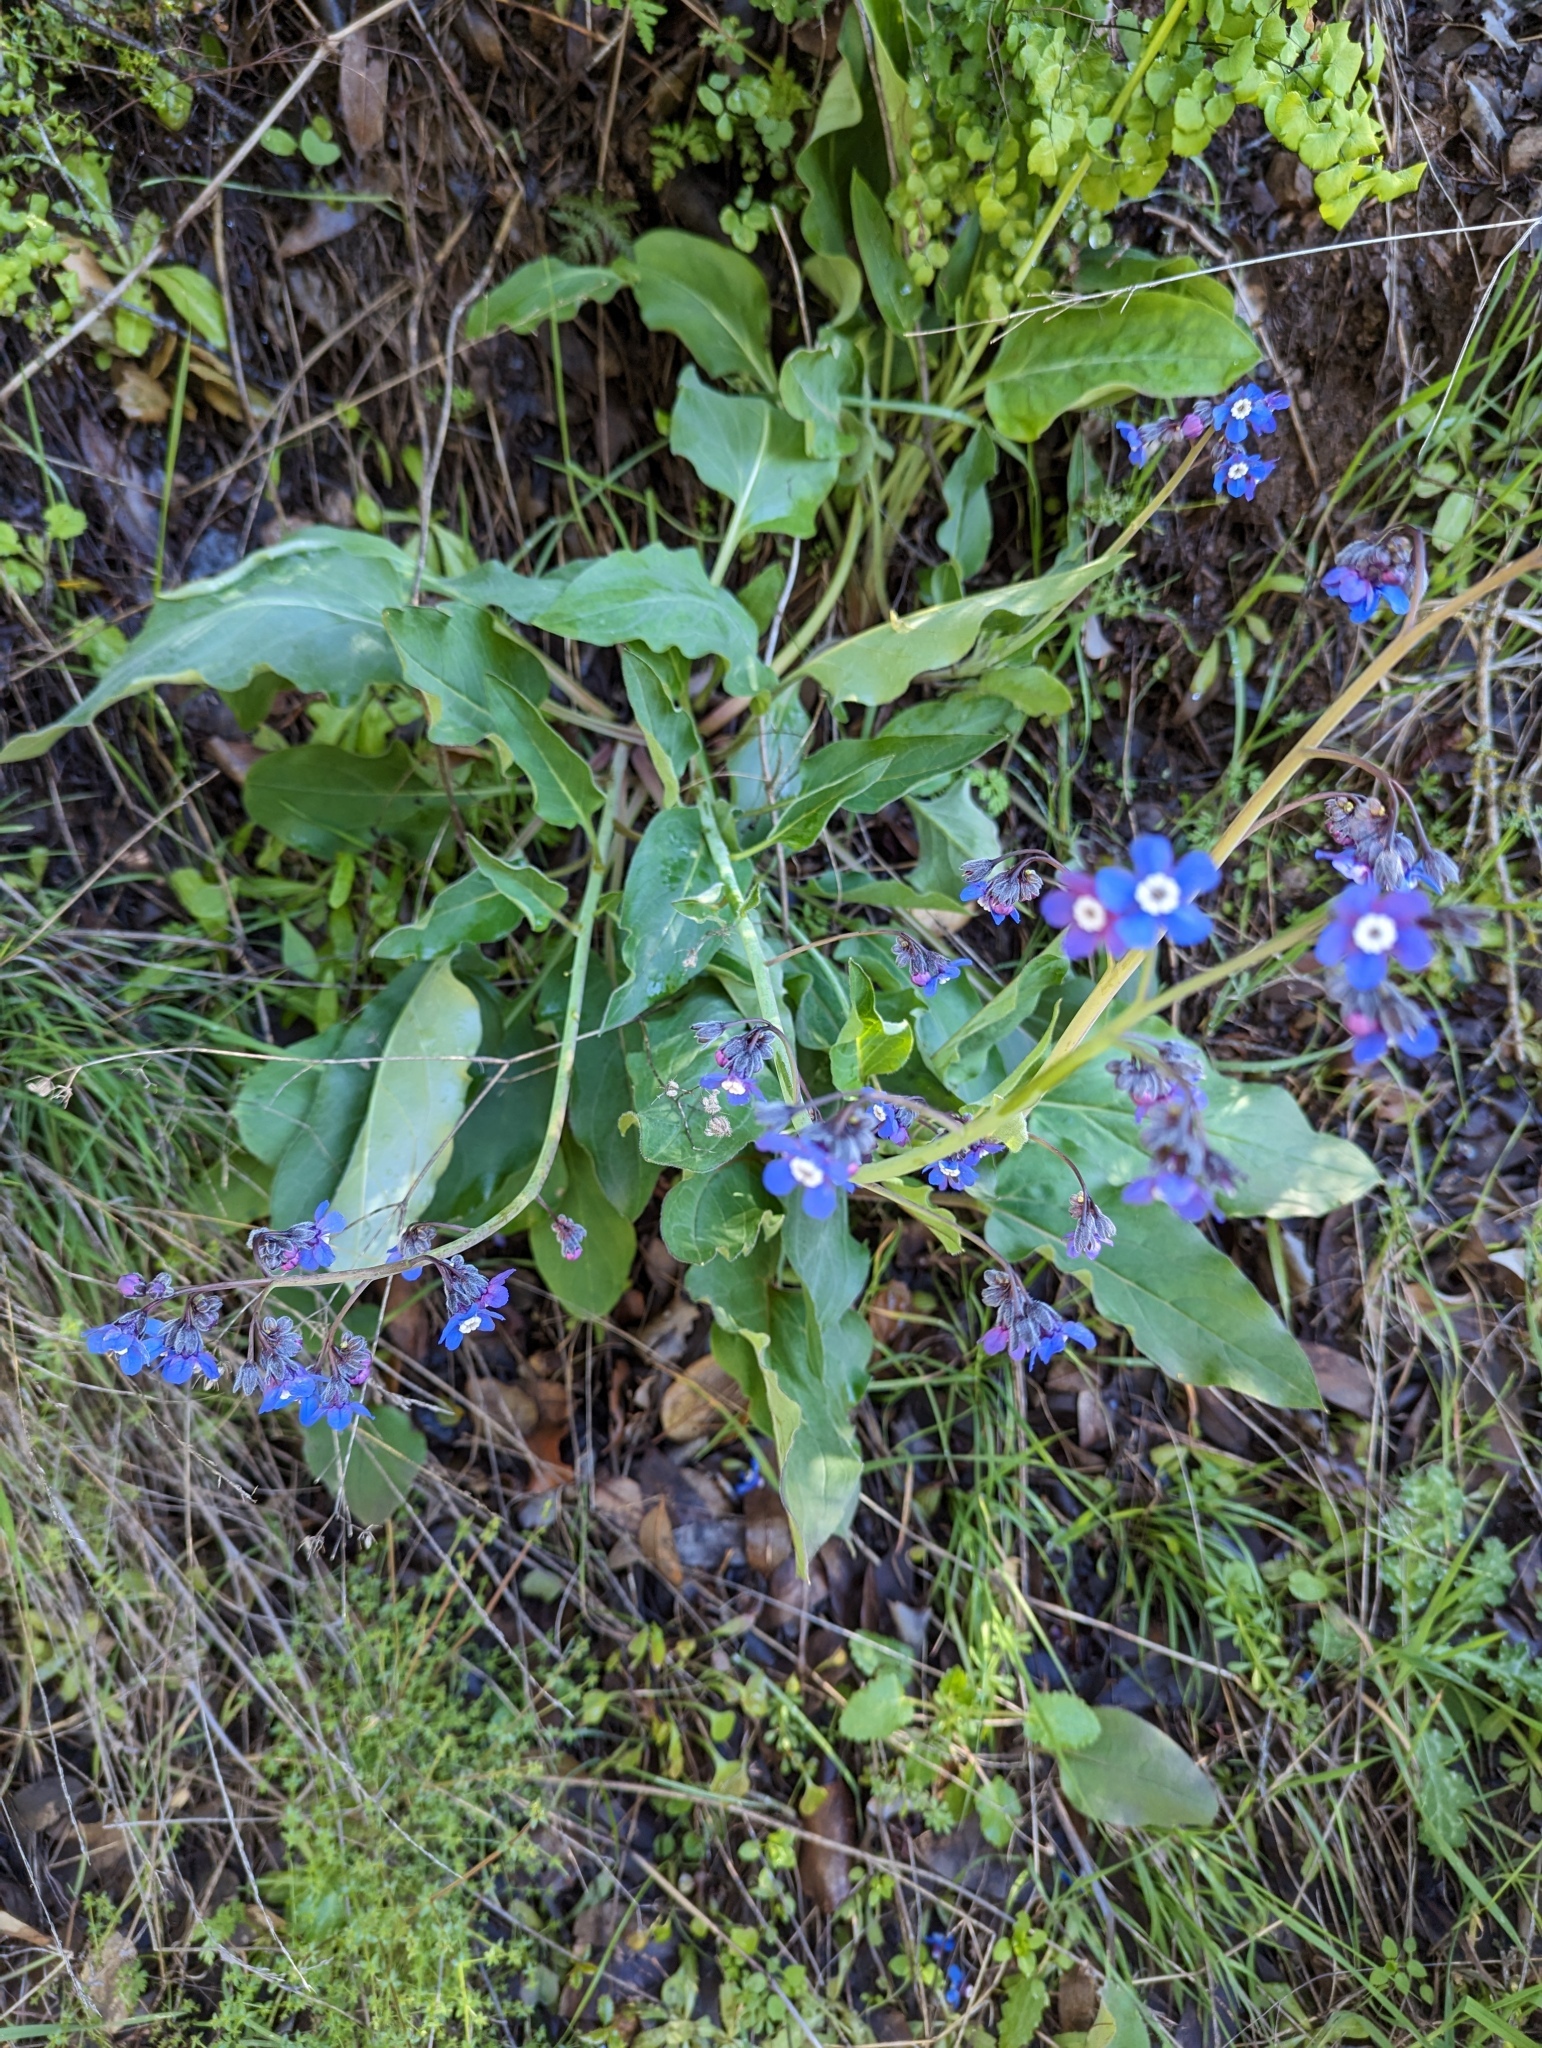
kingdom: Plantae
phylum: Tracheophyta
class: Magnoliopsida
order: Boraginales
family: Boraginaceae
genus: Adelinia
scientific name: Adelinia grande
